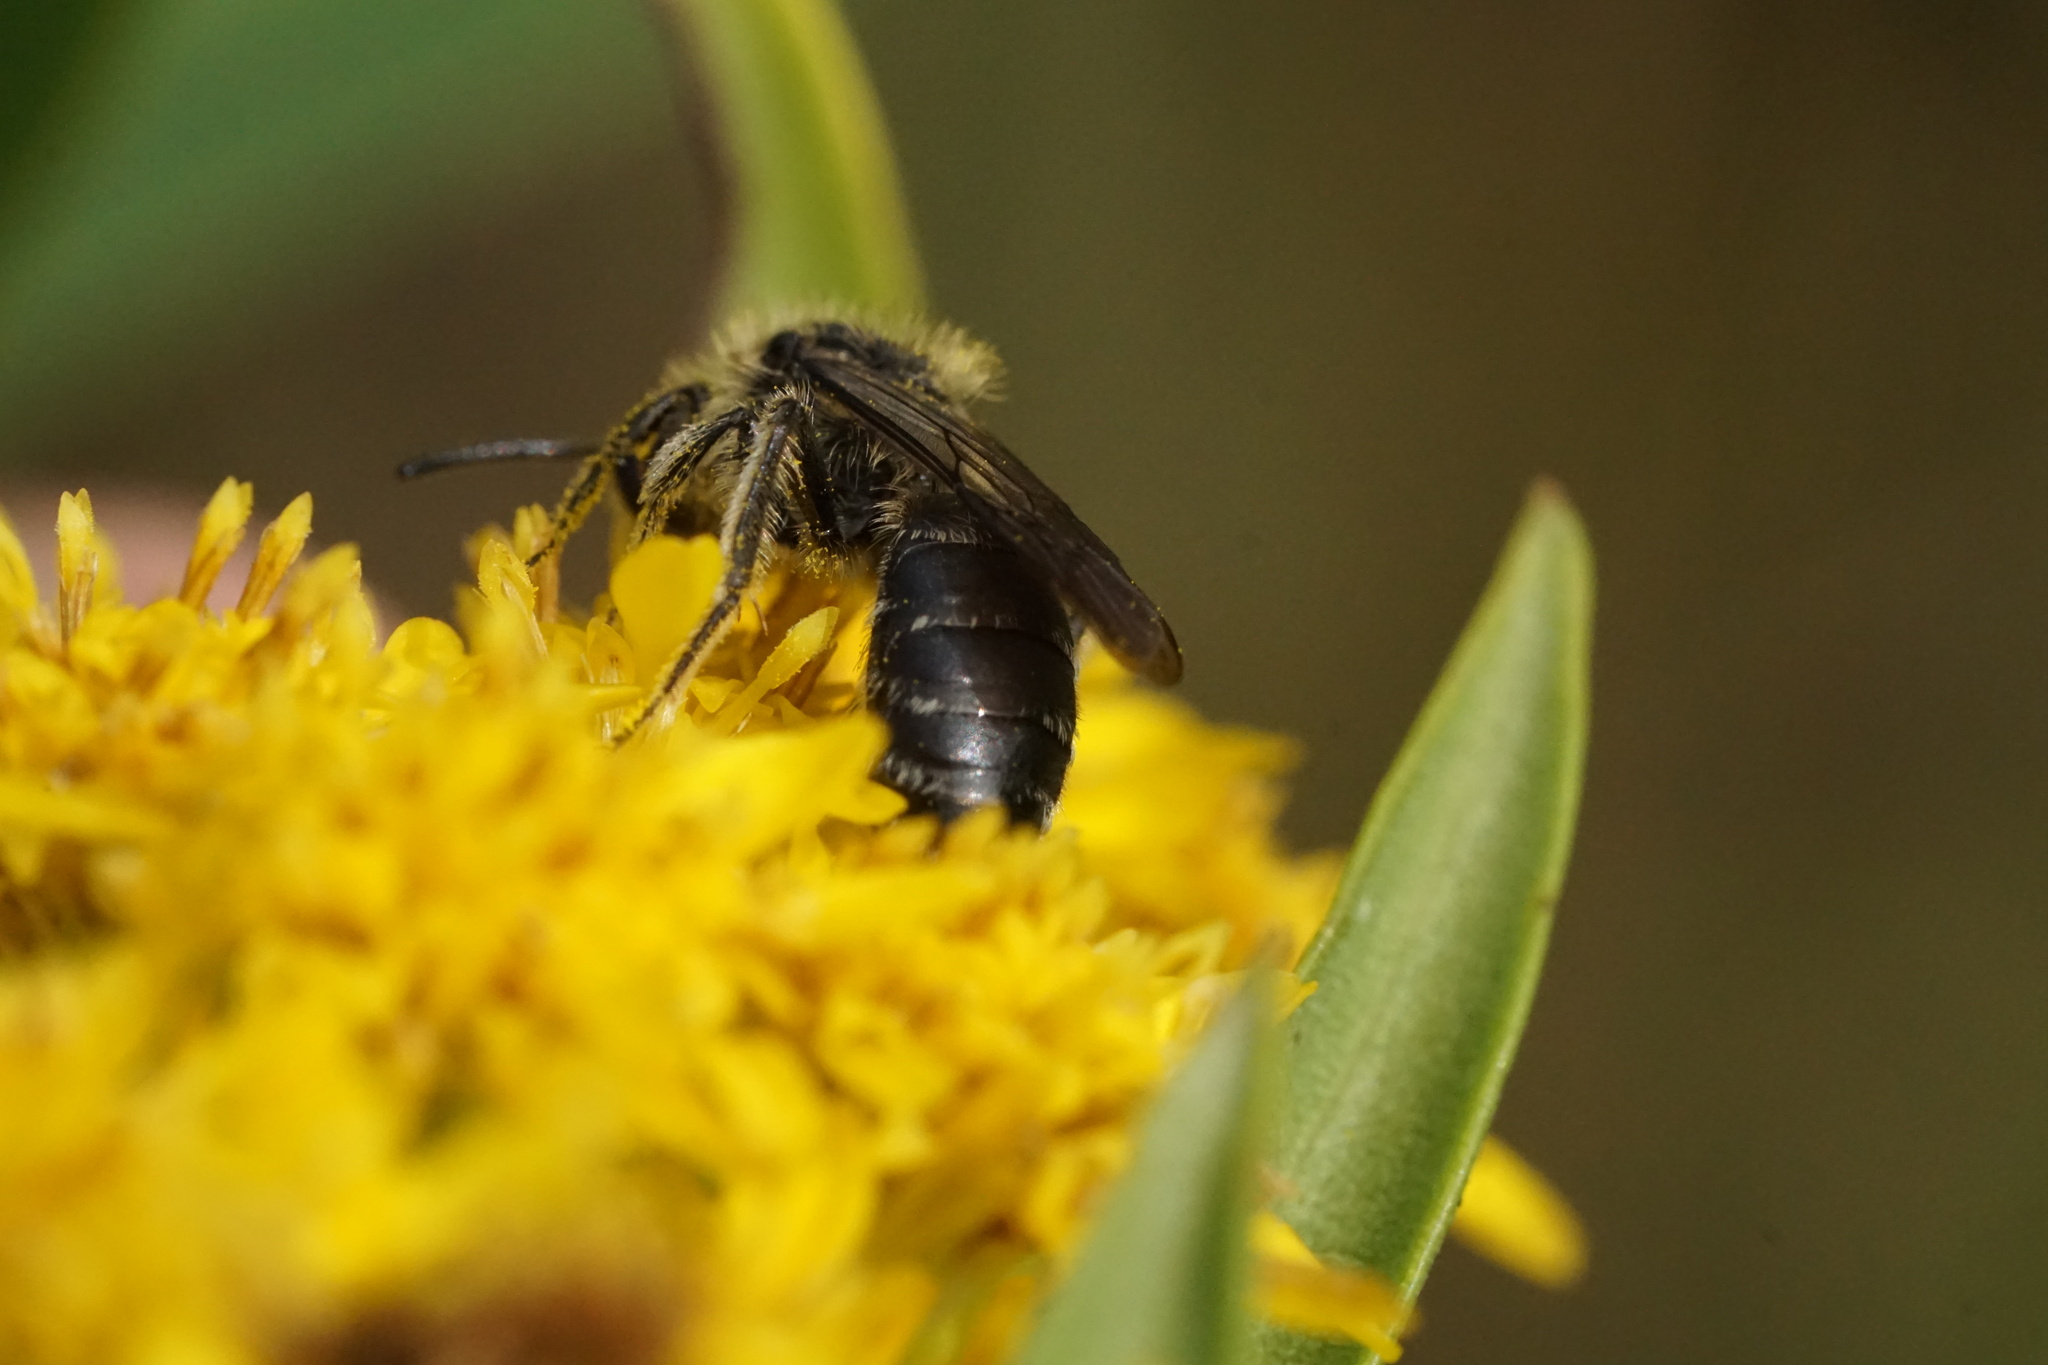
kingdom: Animalia
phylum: Arthropoda
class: Insecta
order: Hymenoptera
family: Andrenidae
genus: Andrena
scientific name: Andrena asteris
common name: Aster mining bee
